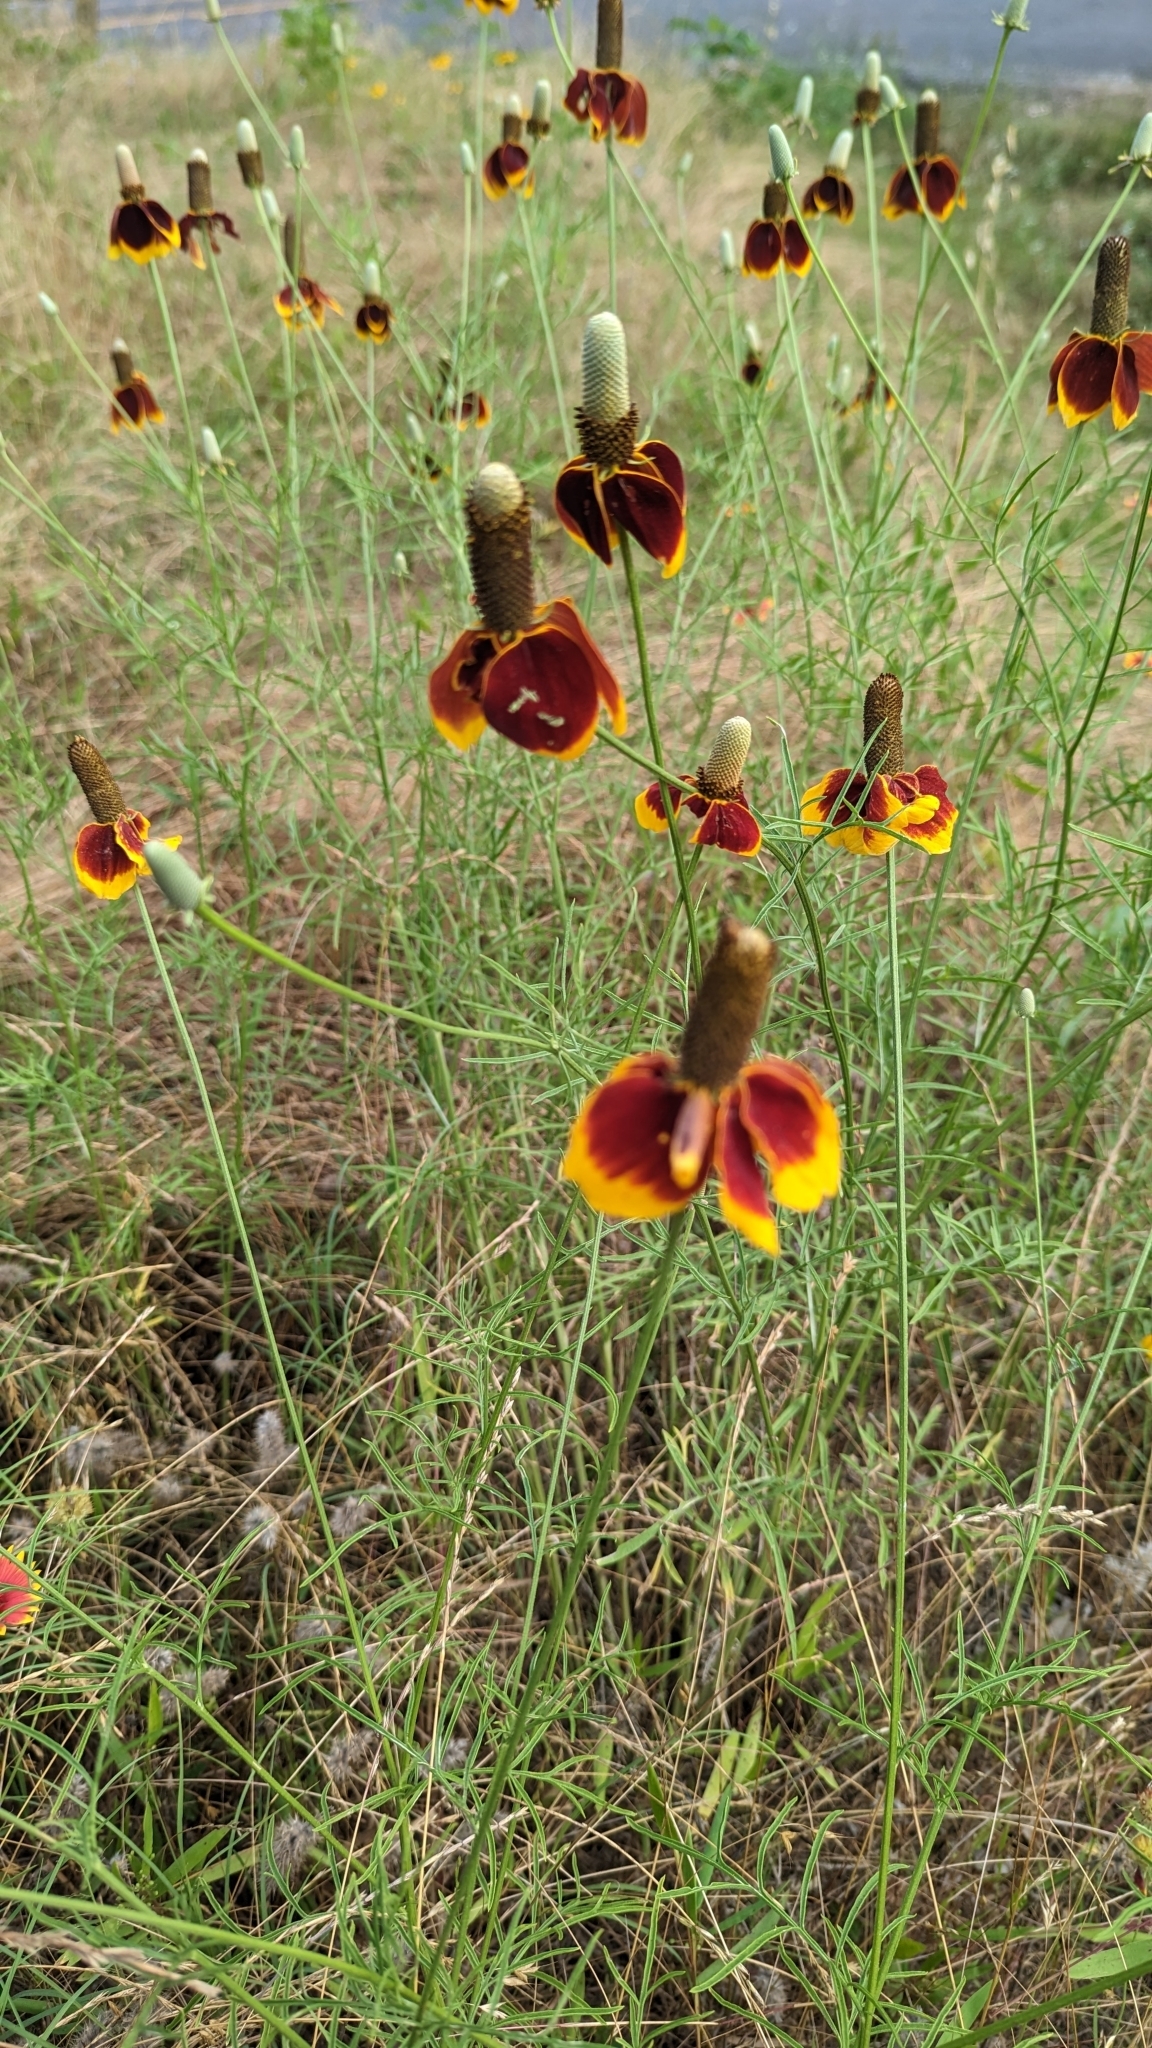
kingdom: Plantae
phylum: Tracheophyta
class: Magnoliopsida
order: Asterales
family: Asteraceae
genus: Ratibida
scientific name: Ratibida columnifera
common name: Prairie coneflower
